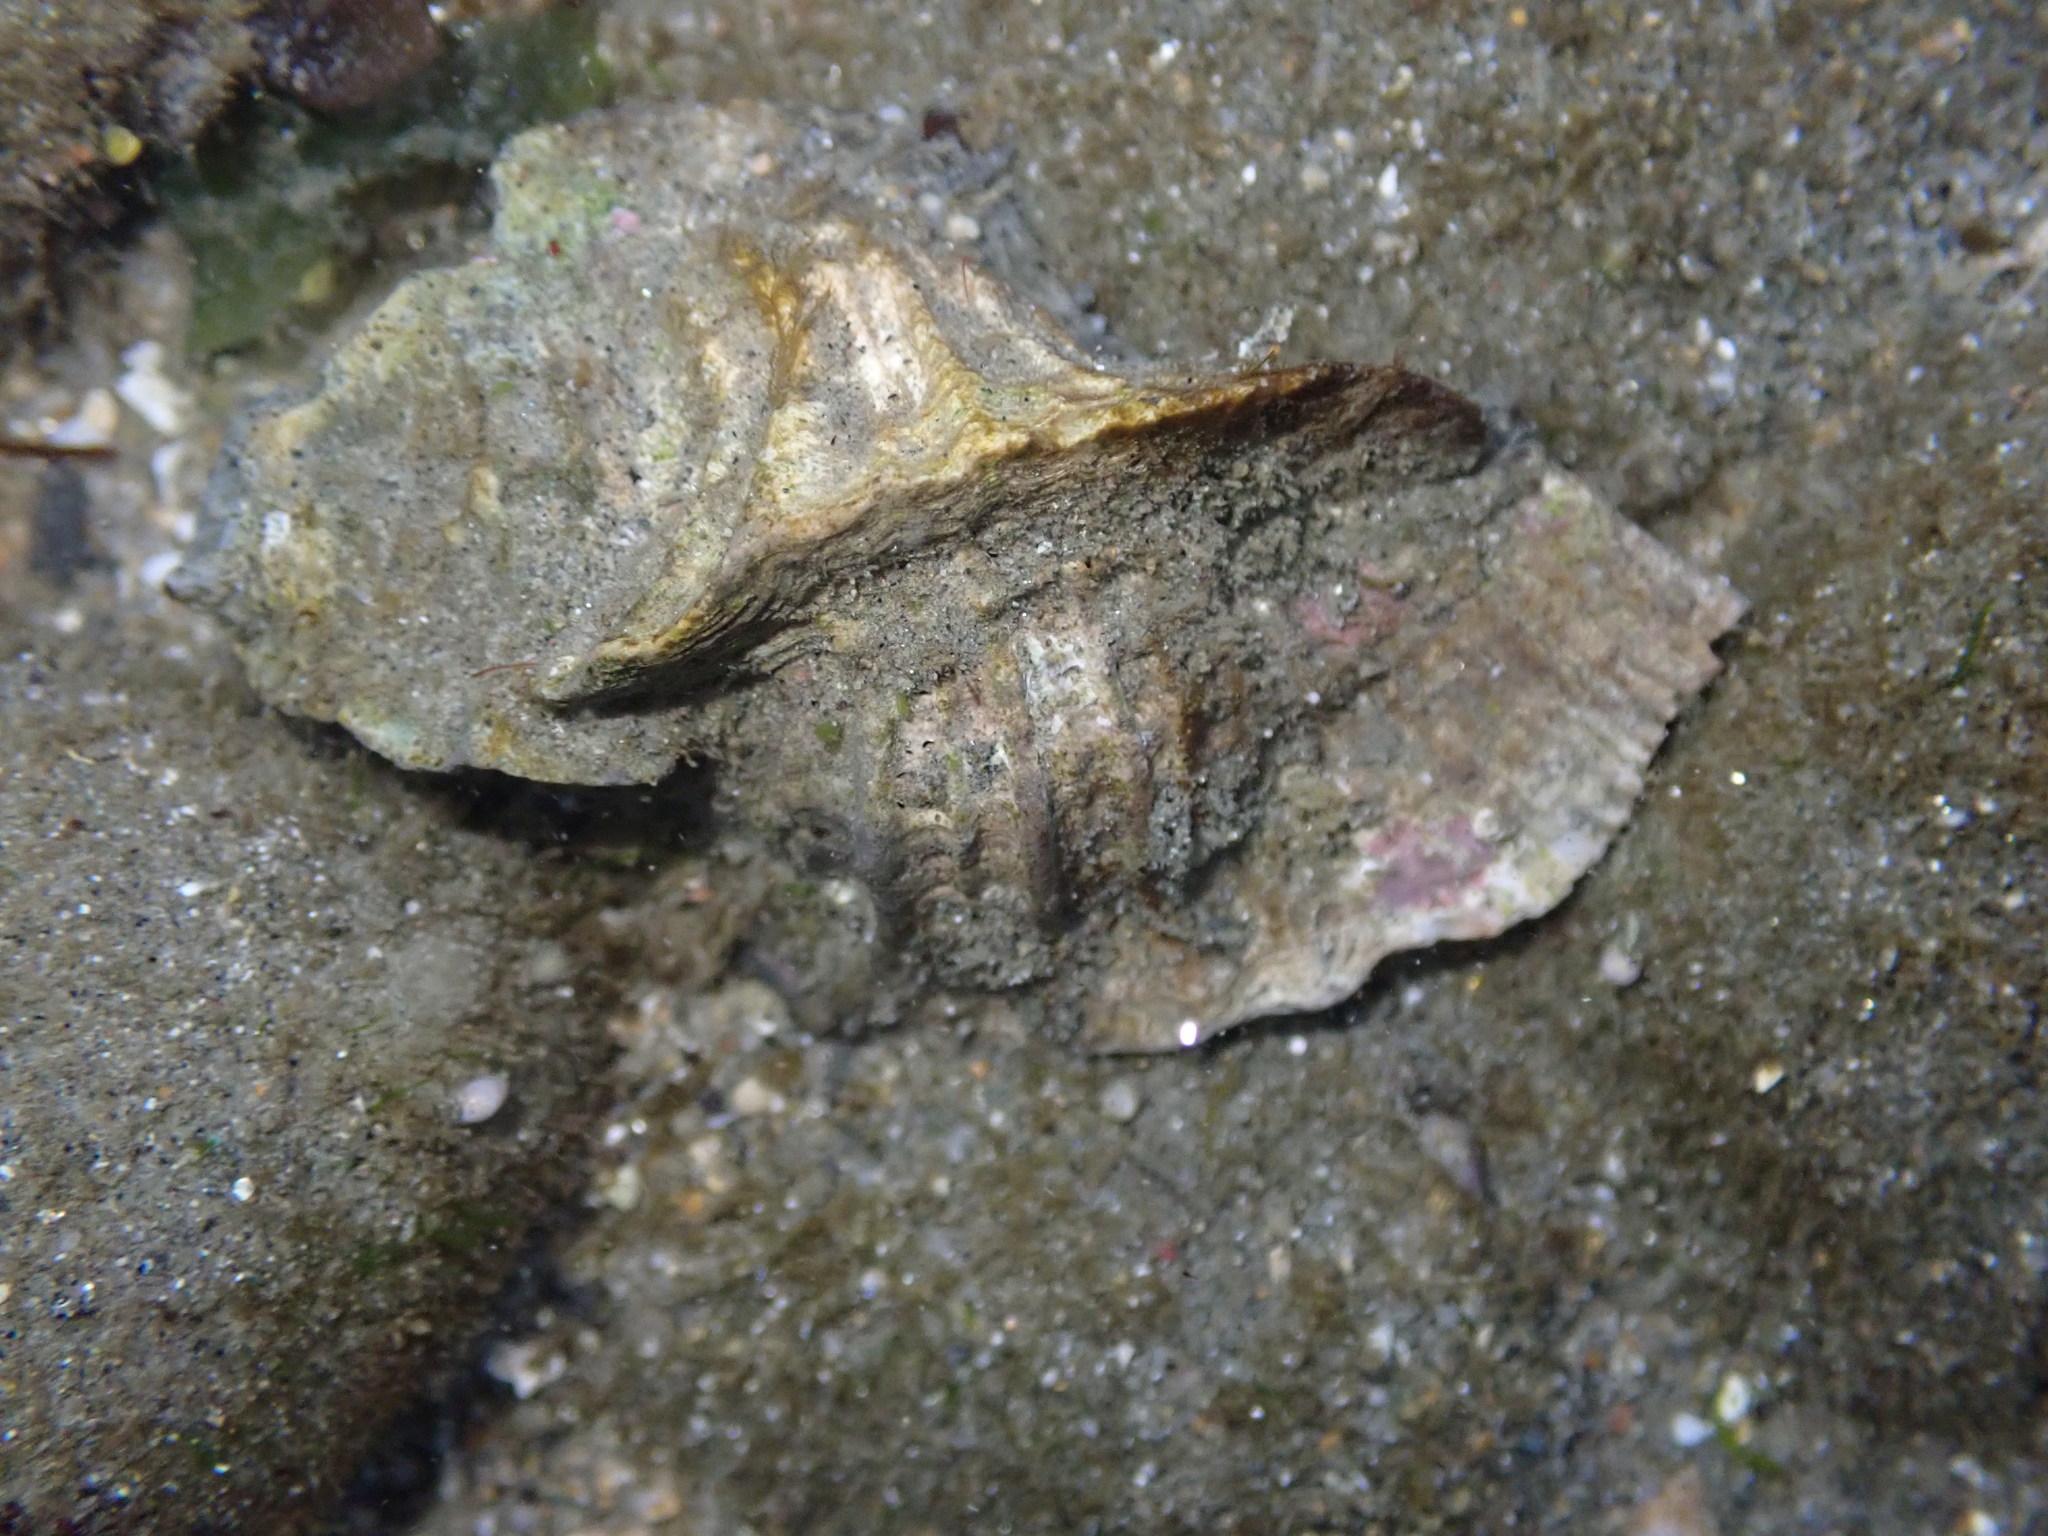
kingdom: Animalia
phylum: Mollusca
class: Gastropoda
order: Neogastropoda
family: Muricidae
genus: Ceratostoma
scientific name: Ceratostoma foliatum
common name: Foliate thorn purpura
